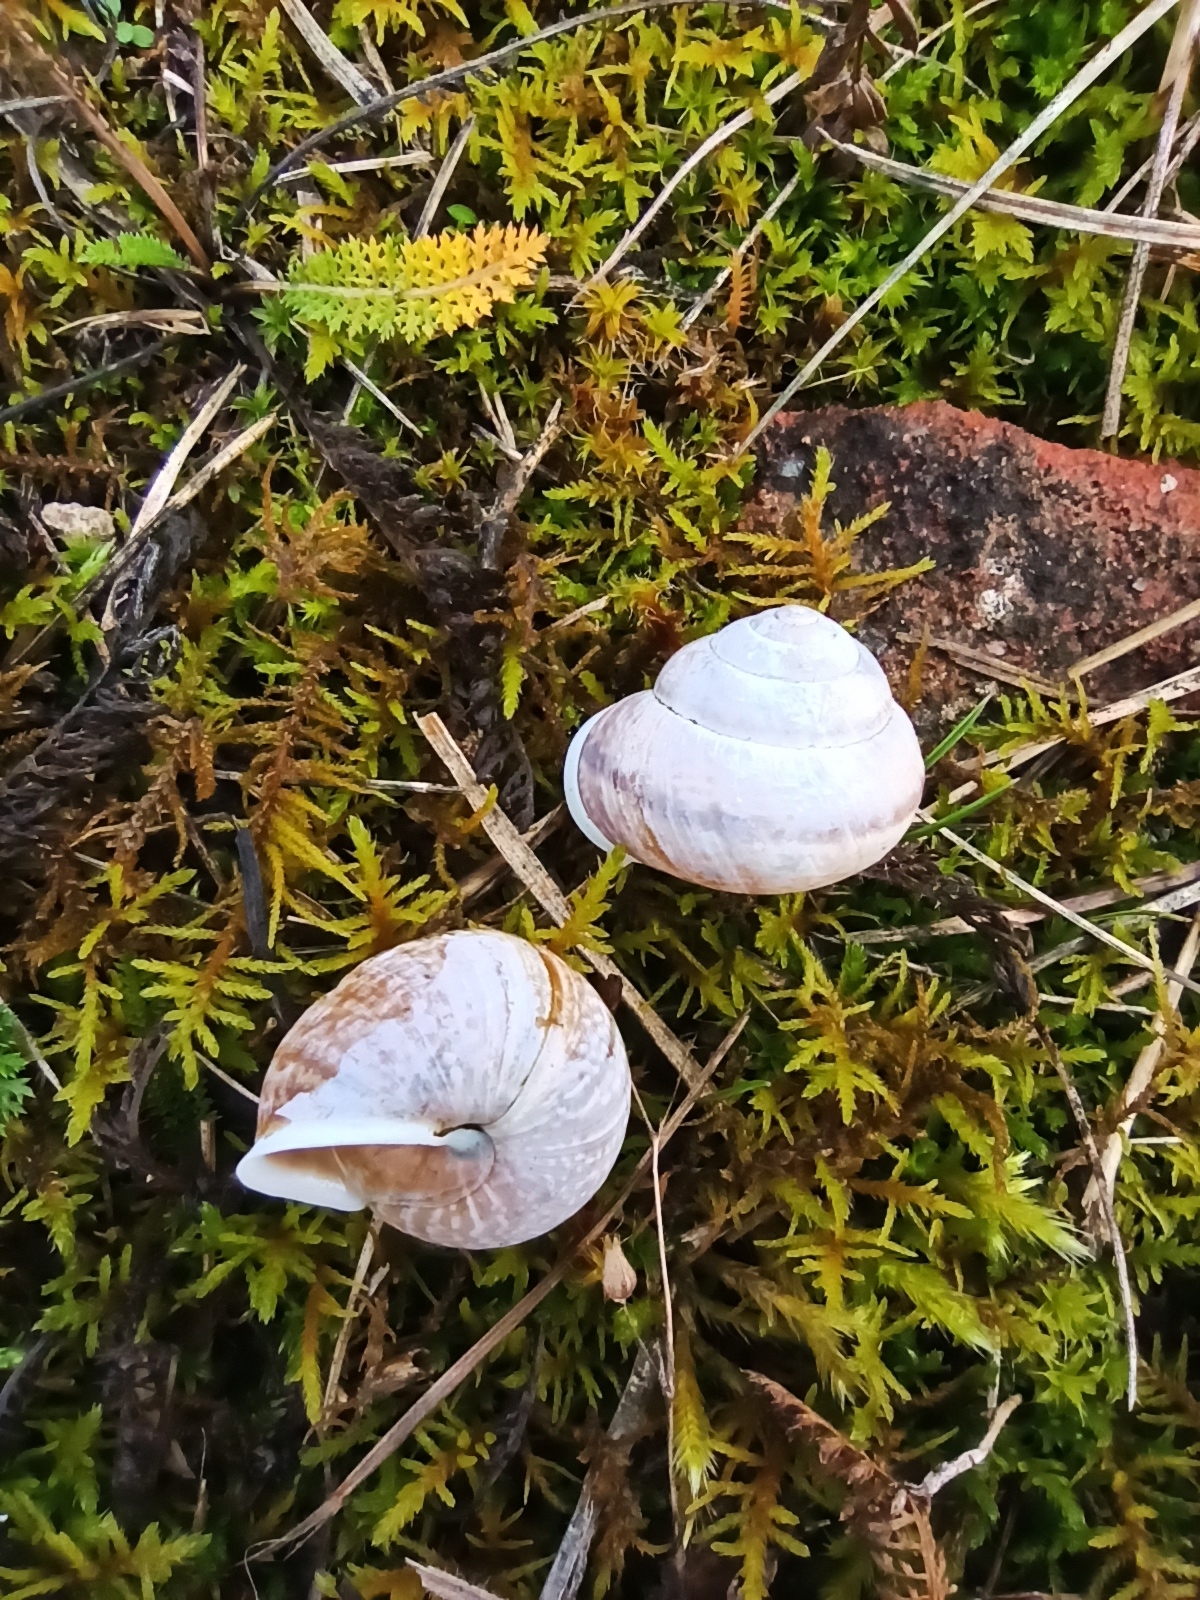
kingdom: Animalia
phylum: Mollusca
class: Gastropoda
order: Stylommatophora
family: Helicidae
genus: Arianta
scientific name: Arianta arbustorum
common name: Copse snail
